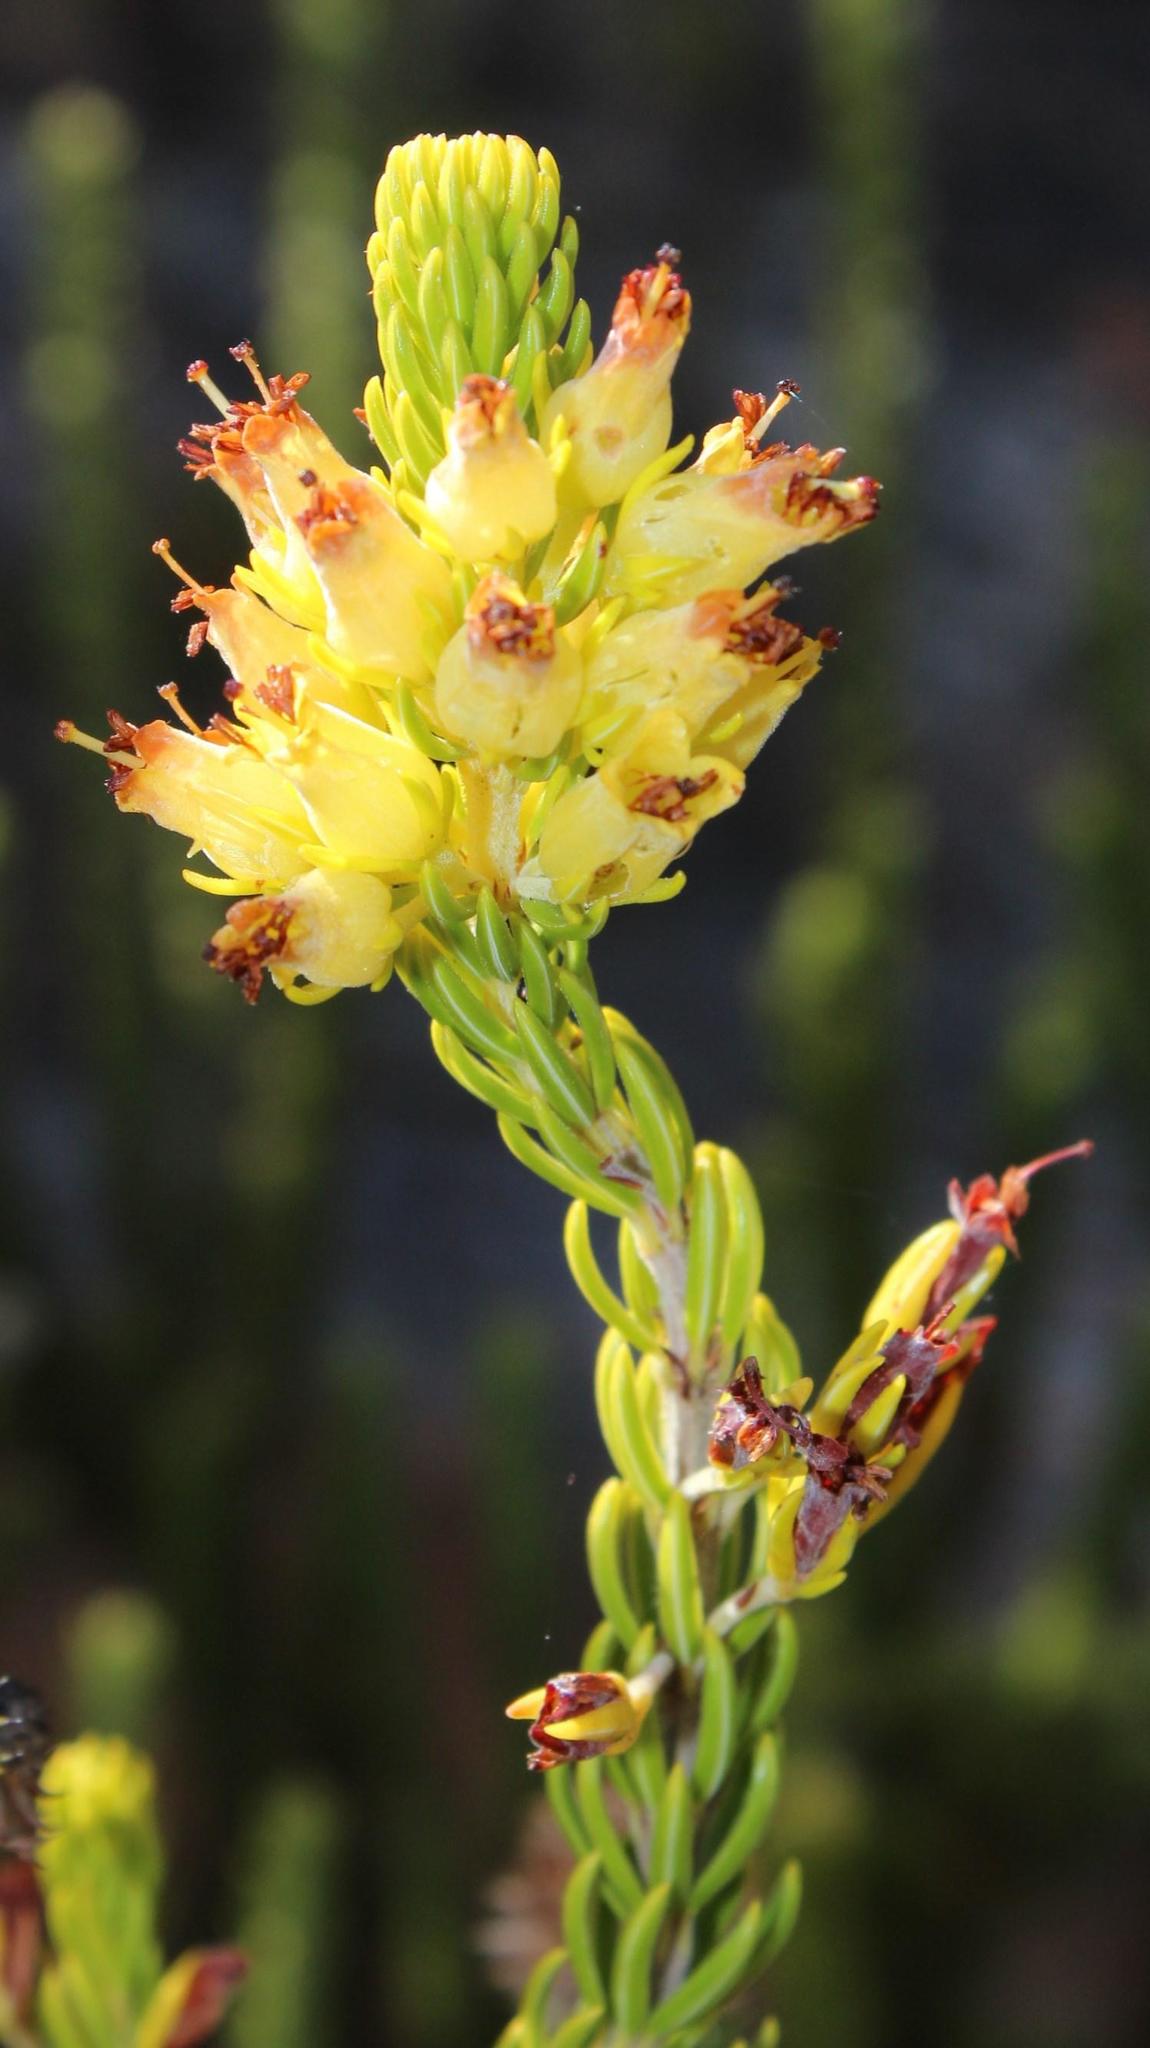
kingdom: Plantae
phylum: Tracheophyta
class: Magnoliopsida
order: Ericales
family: Ericaceae
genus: Erica
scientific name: Erica parilis
